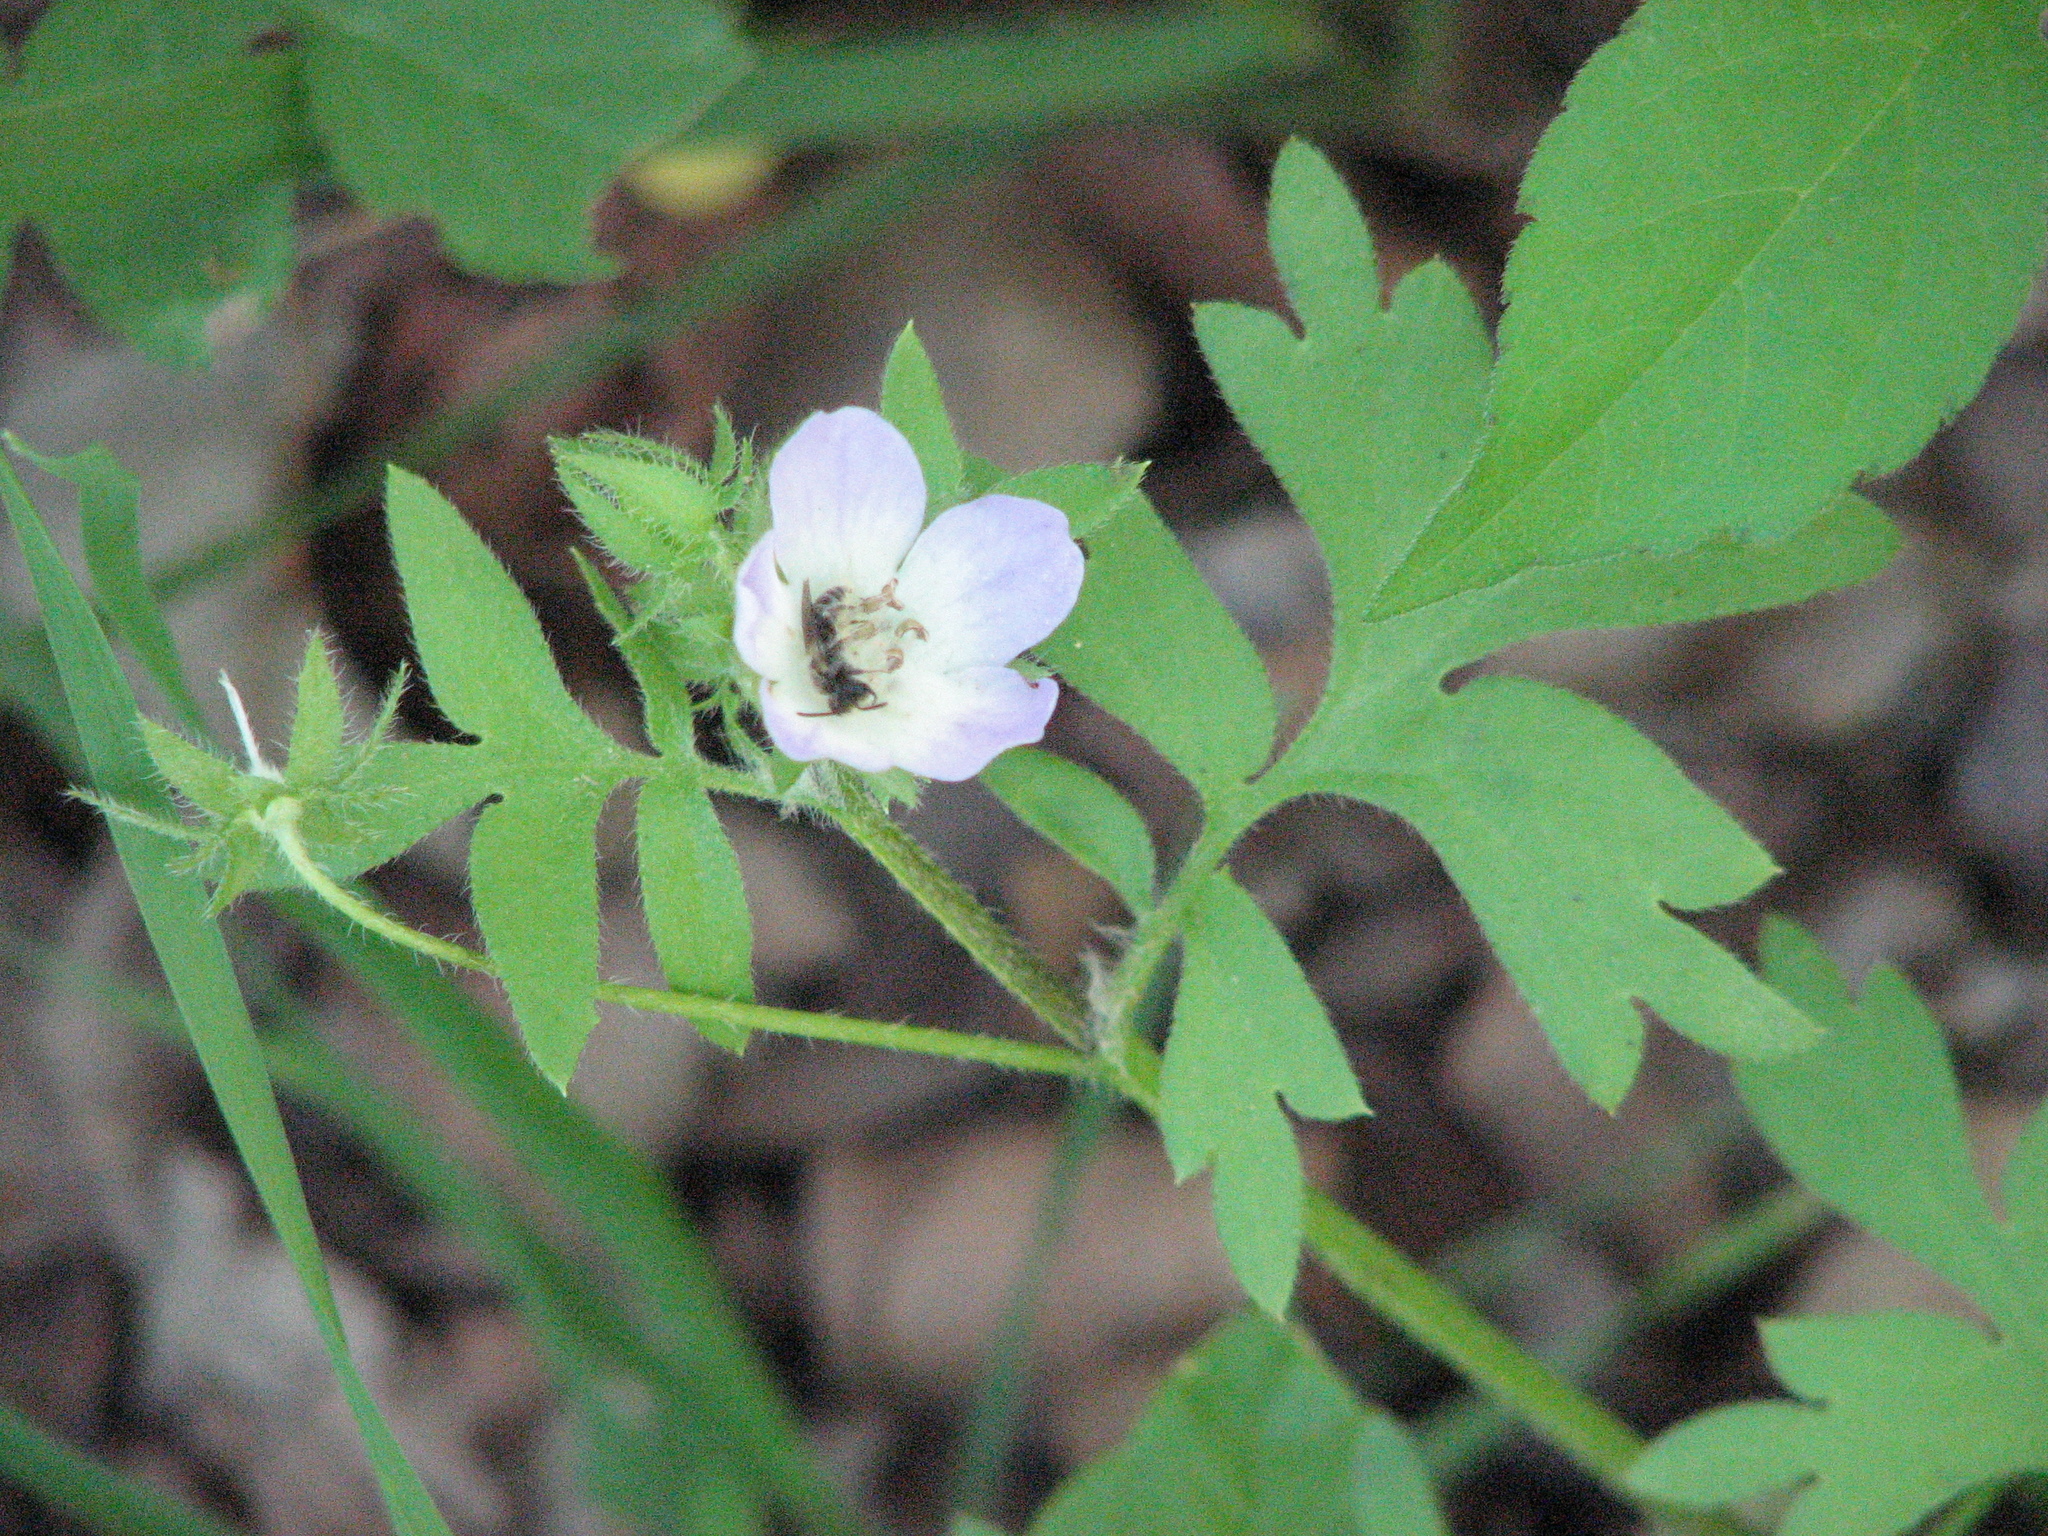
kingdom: Plantae
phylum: Tracheophyta
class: Magnoliopsida
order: Boraginales
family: Hydrophyllaceae
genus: Nemophila
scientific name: Nemophila phacelioides
